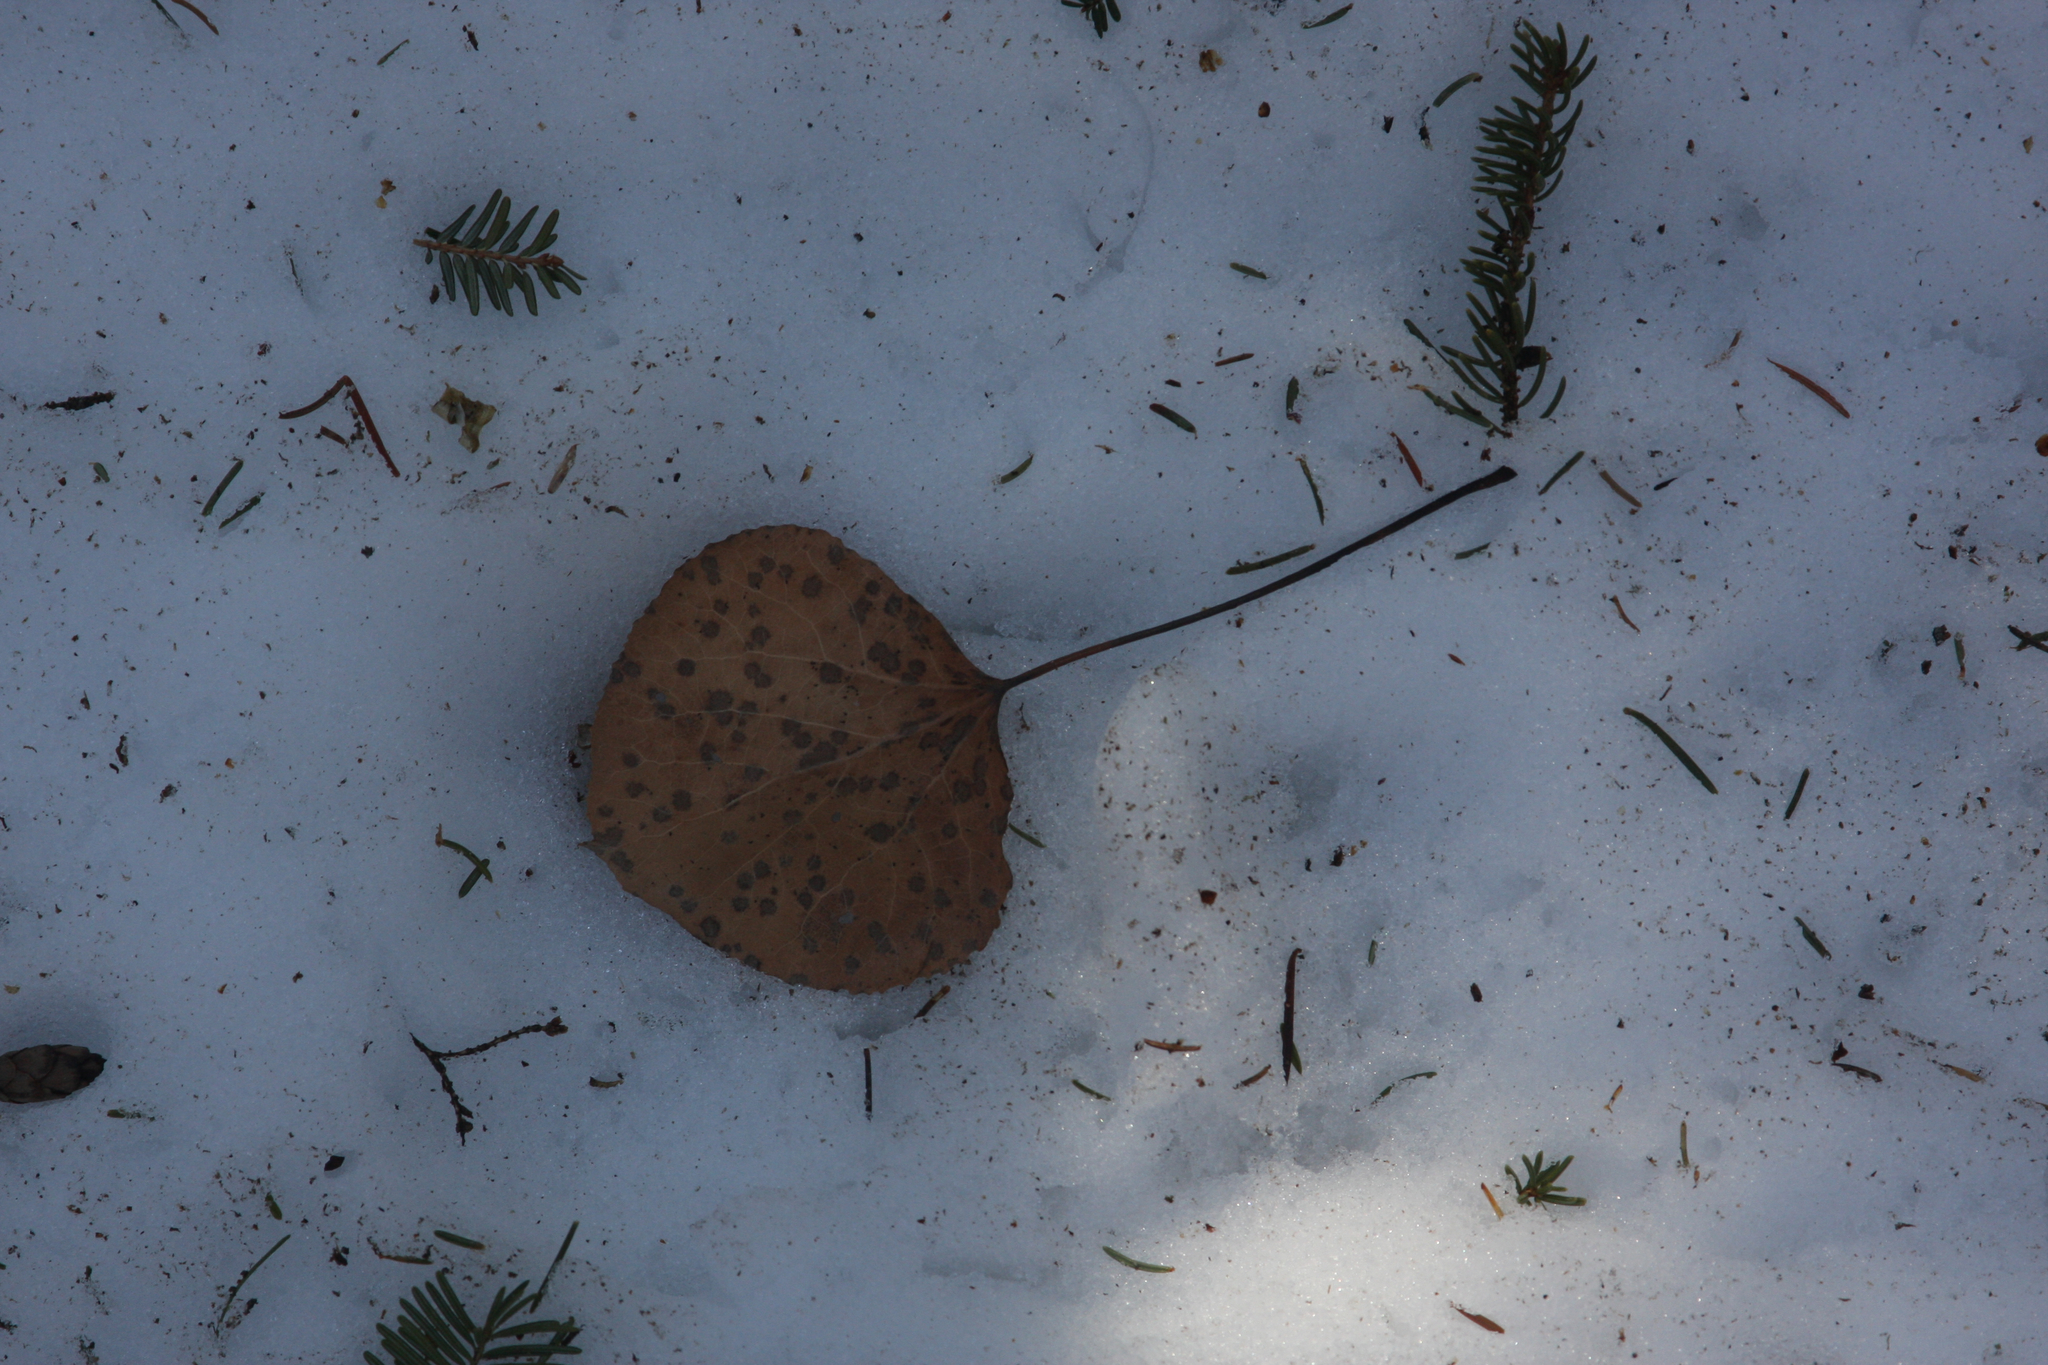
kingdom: Plantae
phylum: Tracheophyta
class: Magnoliopsida
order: Malpighiales
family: Salicaceae
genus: Populus
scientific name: Populus tremuloides
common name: Quaking aspen
